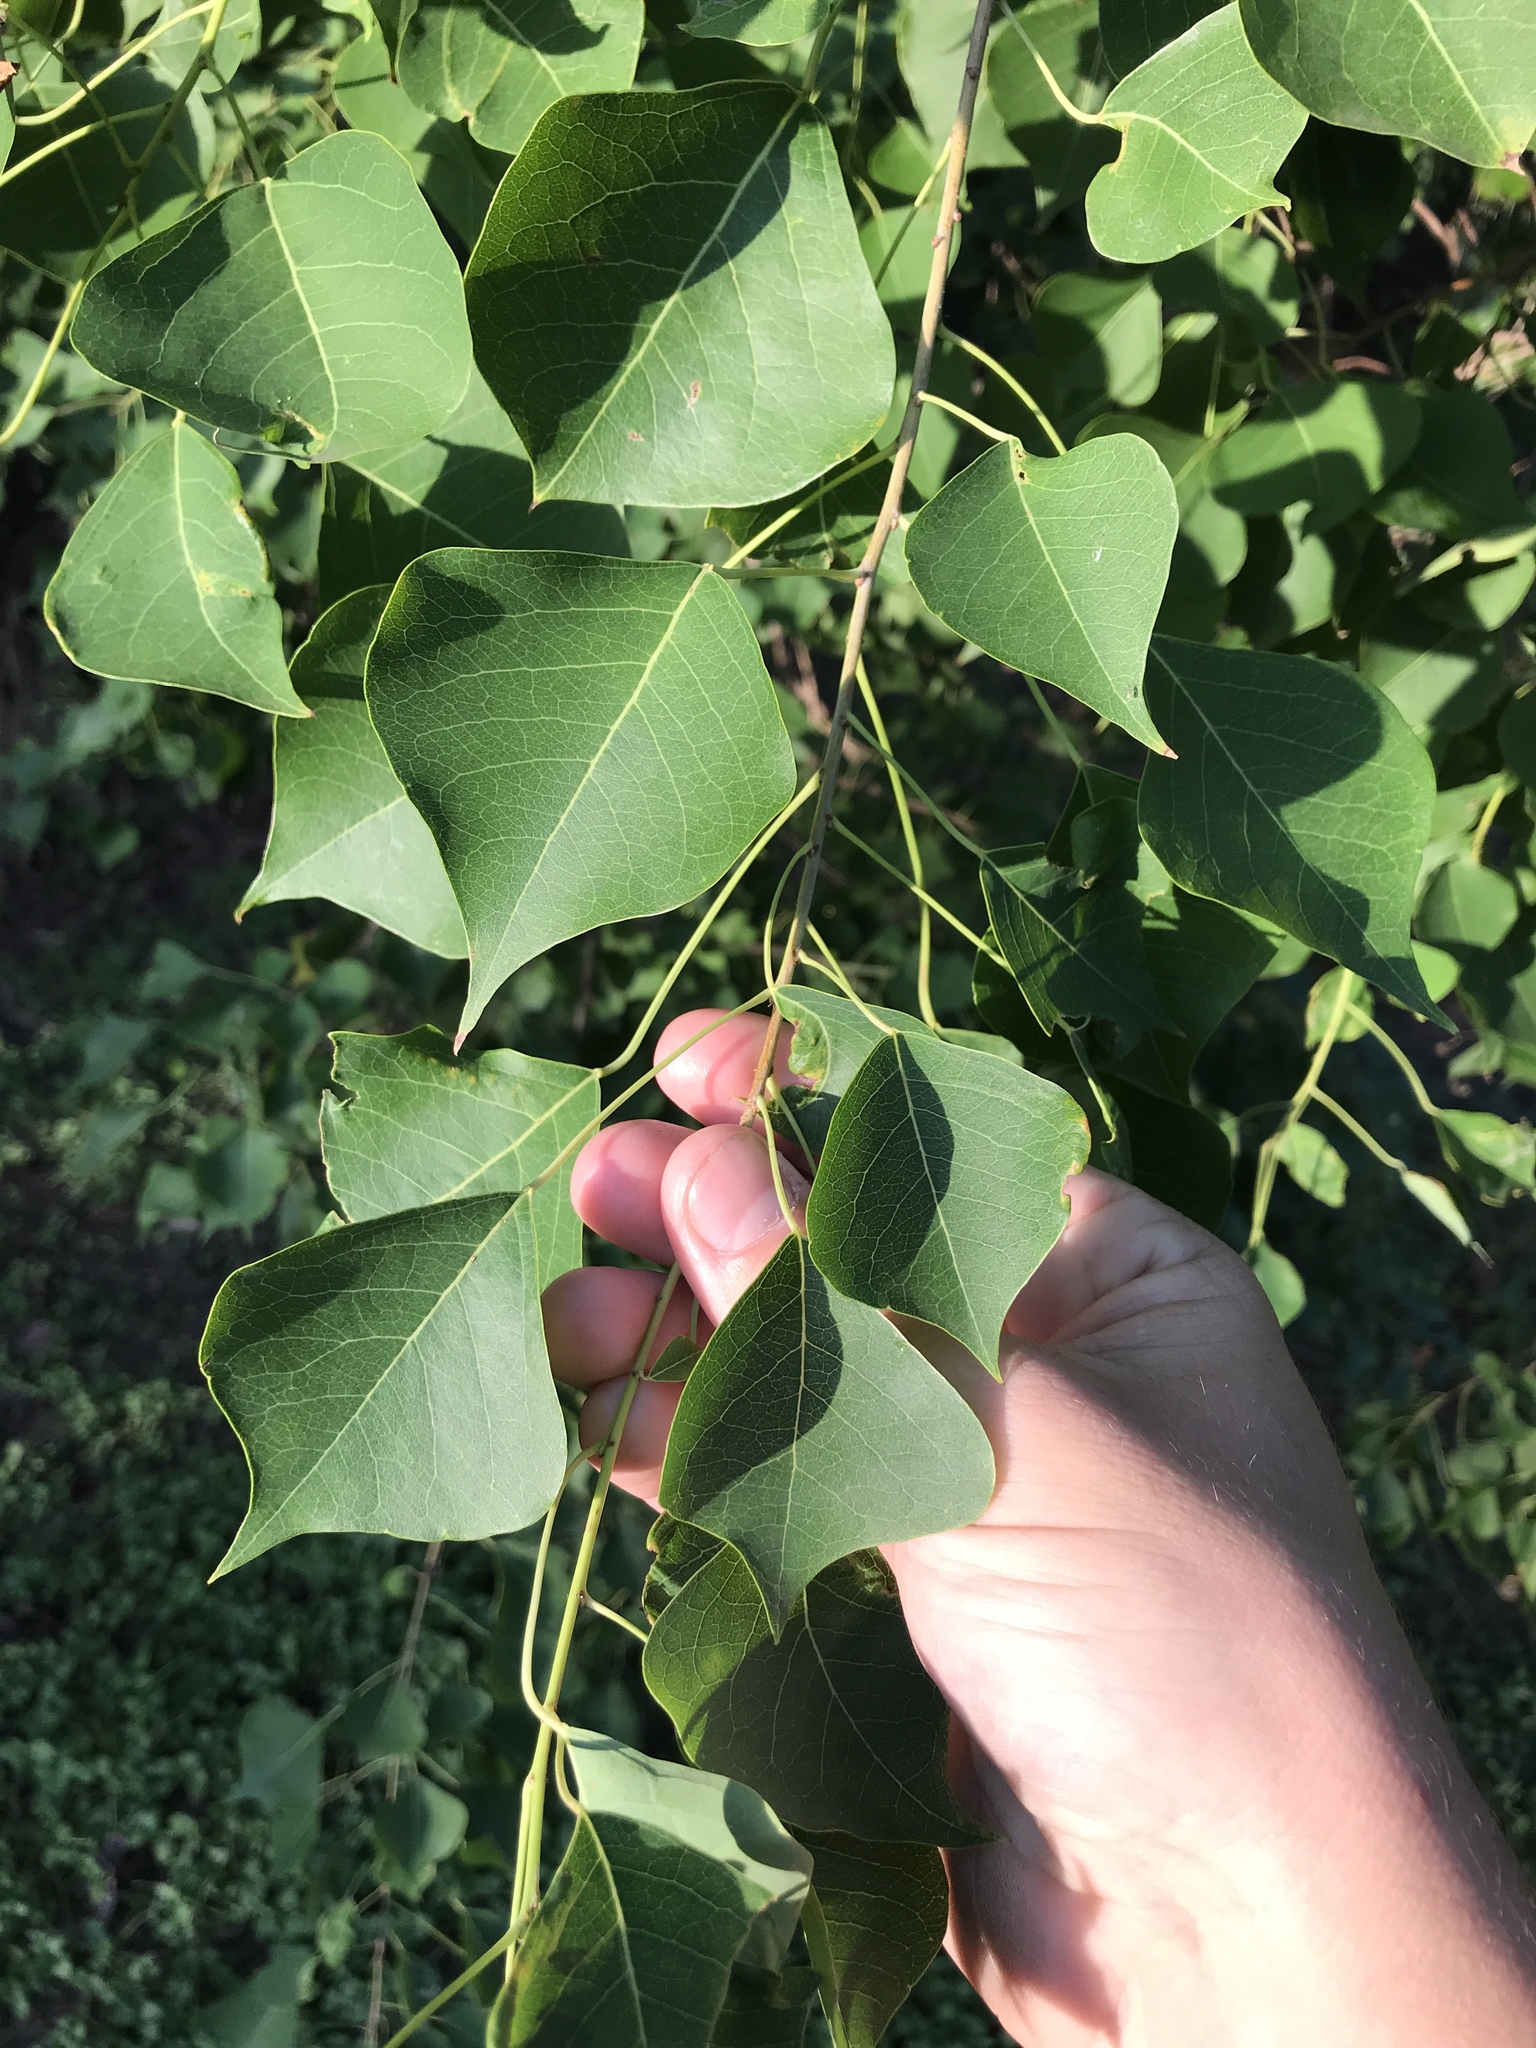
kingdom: Plantae
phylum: Tracheophyta
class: Magnoliopsida
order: Malpighiales
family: Euphorbiaceae
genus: Triadica
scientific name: Triadica sebifera
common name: Chinese tallow
